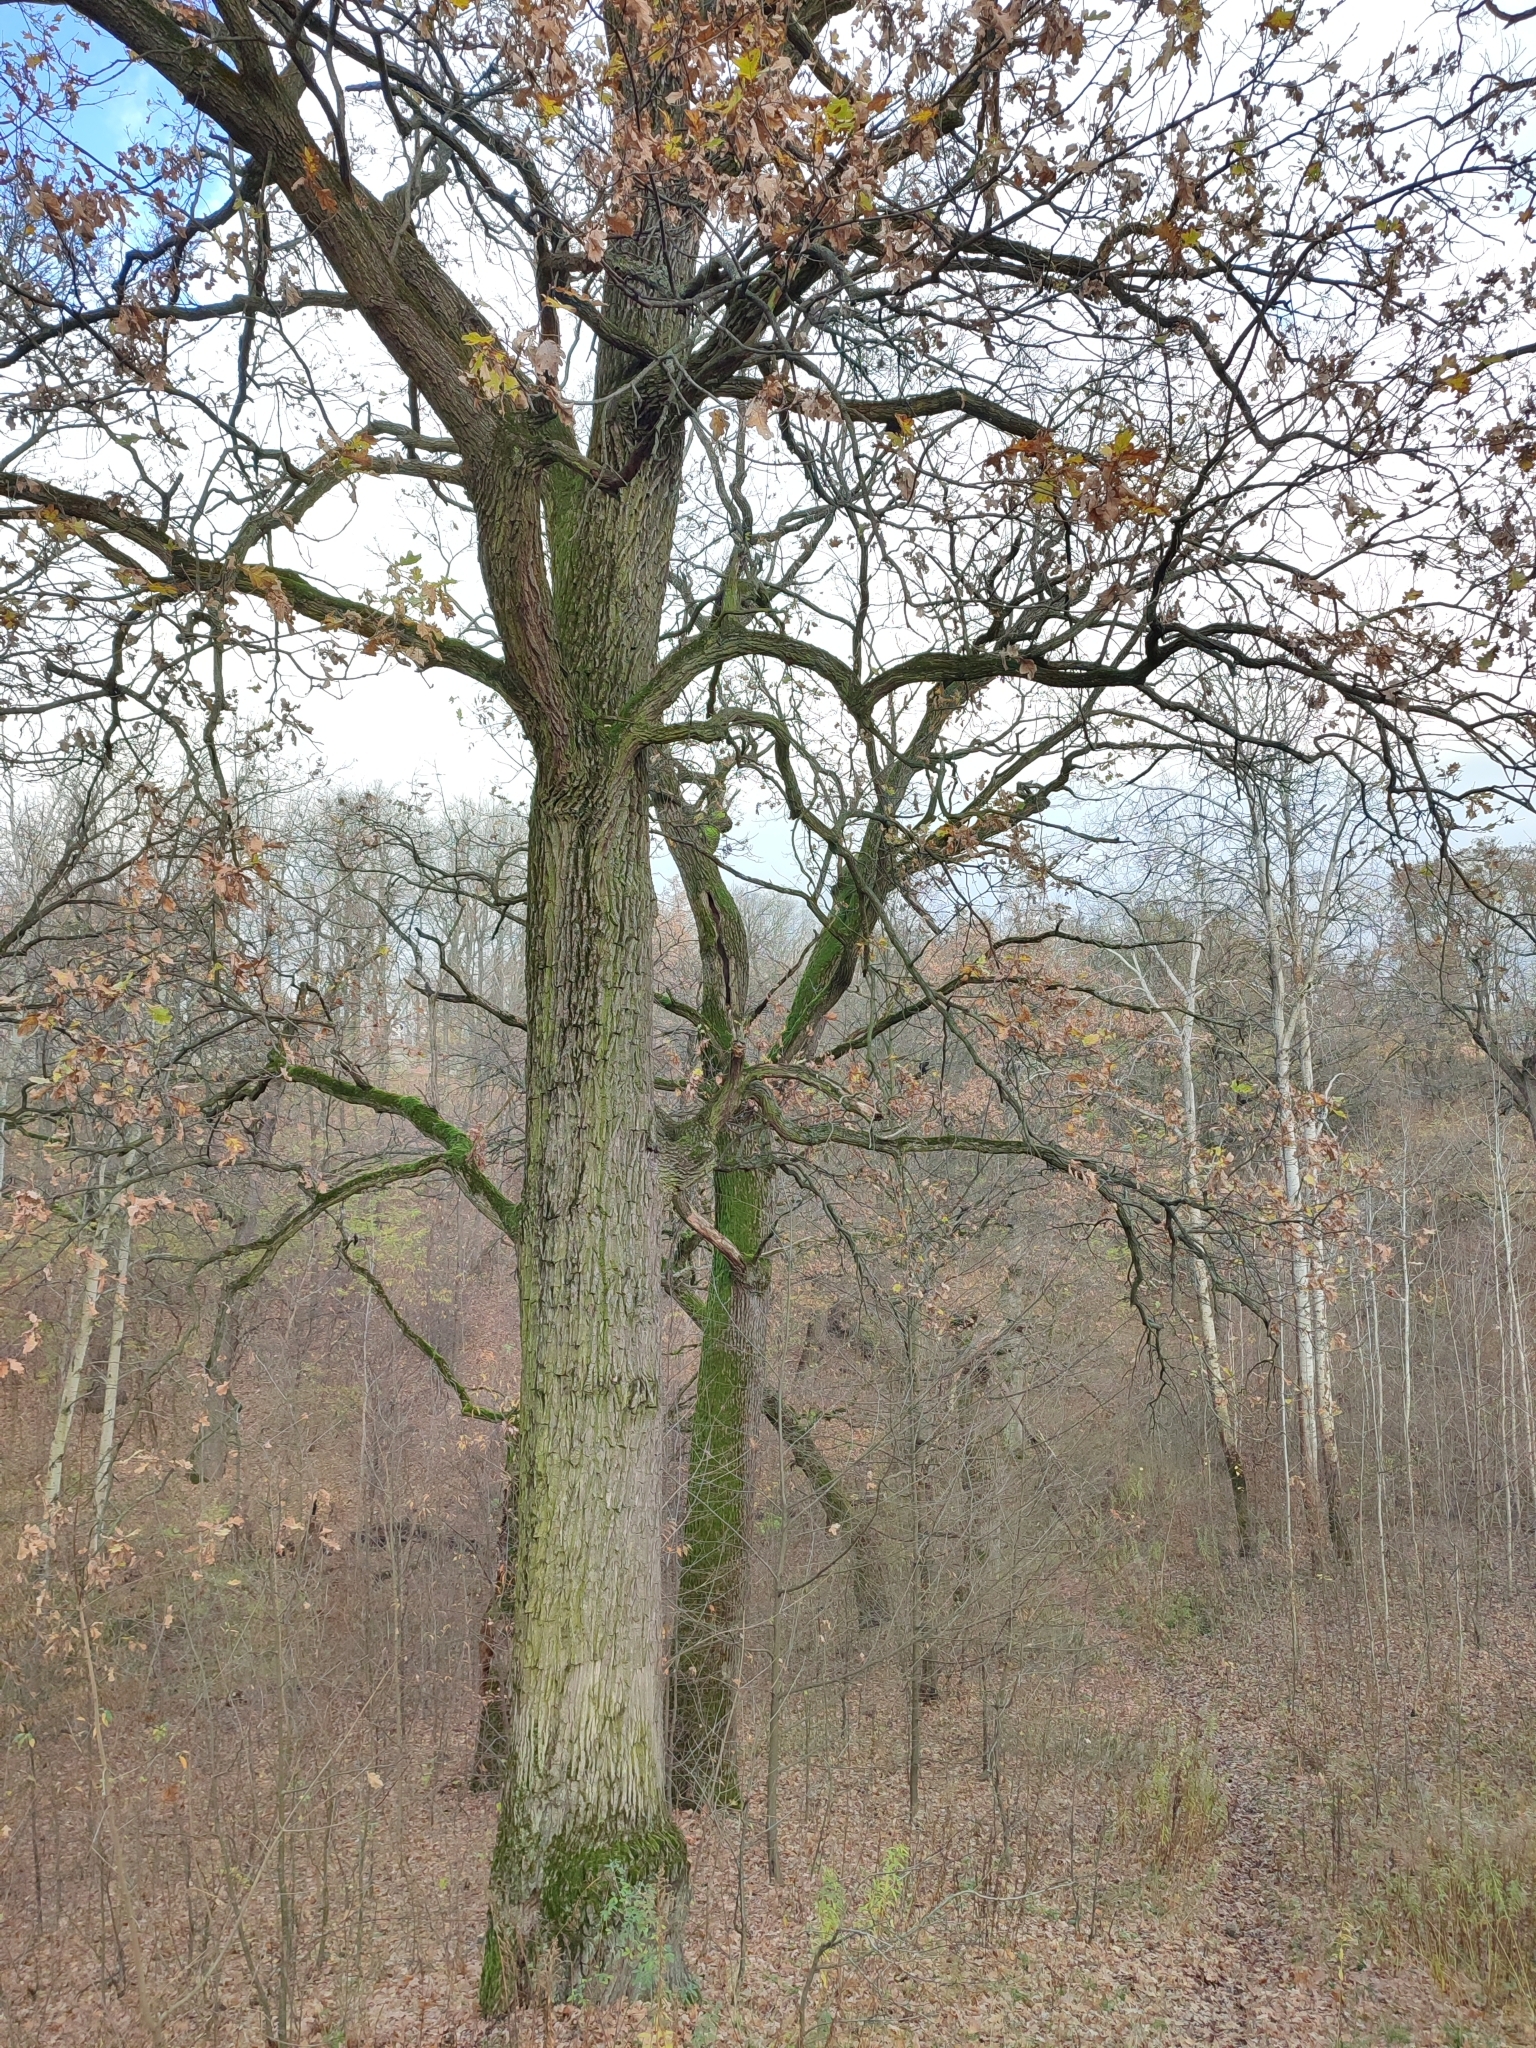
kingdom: Plantae
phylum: Tracheophyta
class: Magnoliopsida
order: Fagales
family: Fagaceae
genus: Quercus
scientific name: Quercus robur
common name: Pedunculate oak
